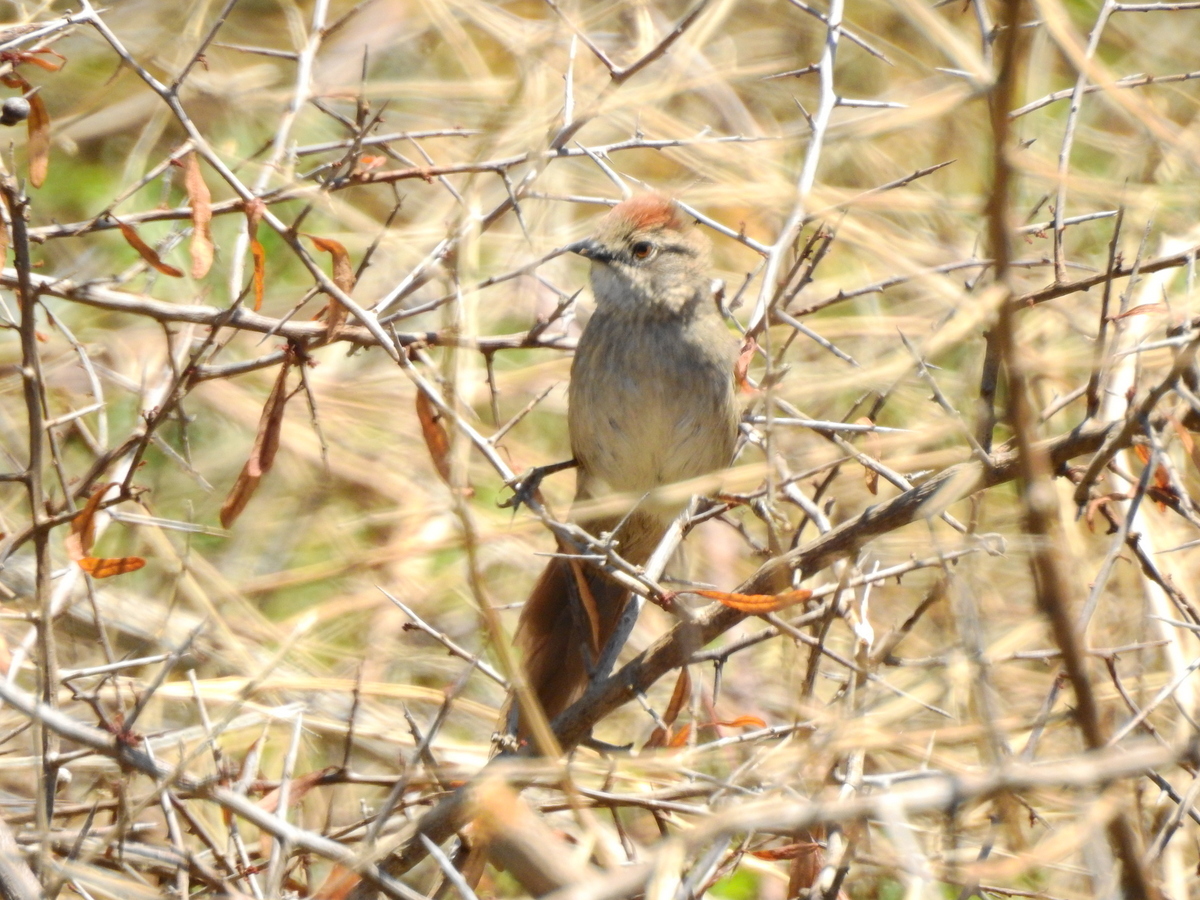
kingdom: Animalia
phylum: Chordata
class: Aves
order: Passeriformes
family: Furnariidae
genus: Synallaxis
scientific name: Synallaxis frontalis
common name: Sooty-fronted spinetail
